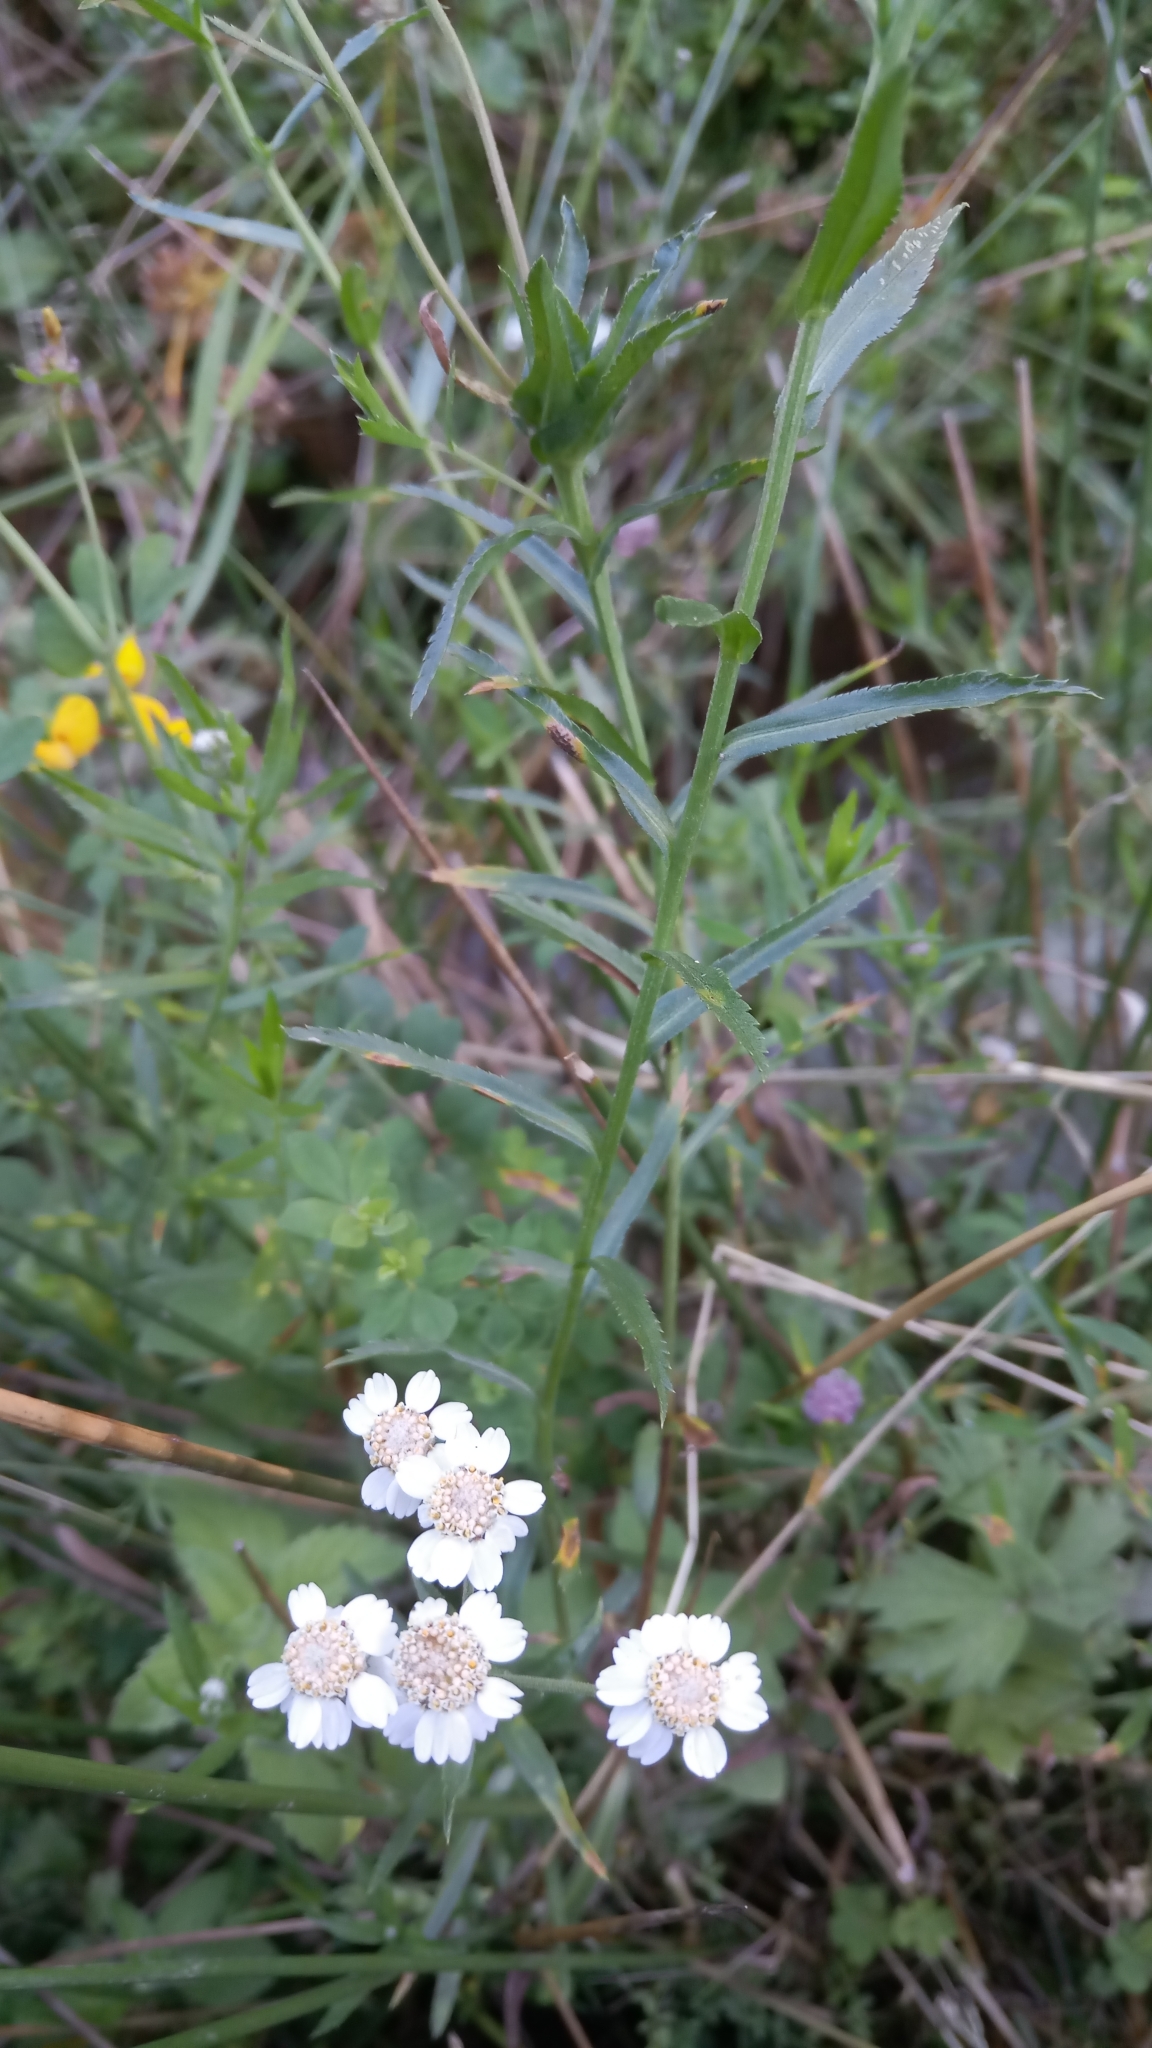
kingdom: Plantae
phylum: Tracheophyta
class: Magnoliopsida
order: Asterales
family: Asteraceae
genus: Achillea
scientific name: Achillea ptarmica
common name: Sneezeweed
